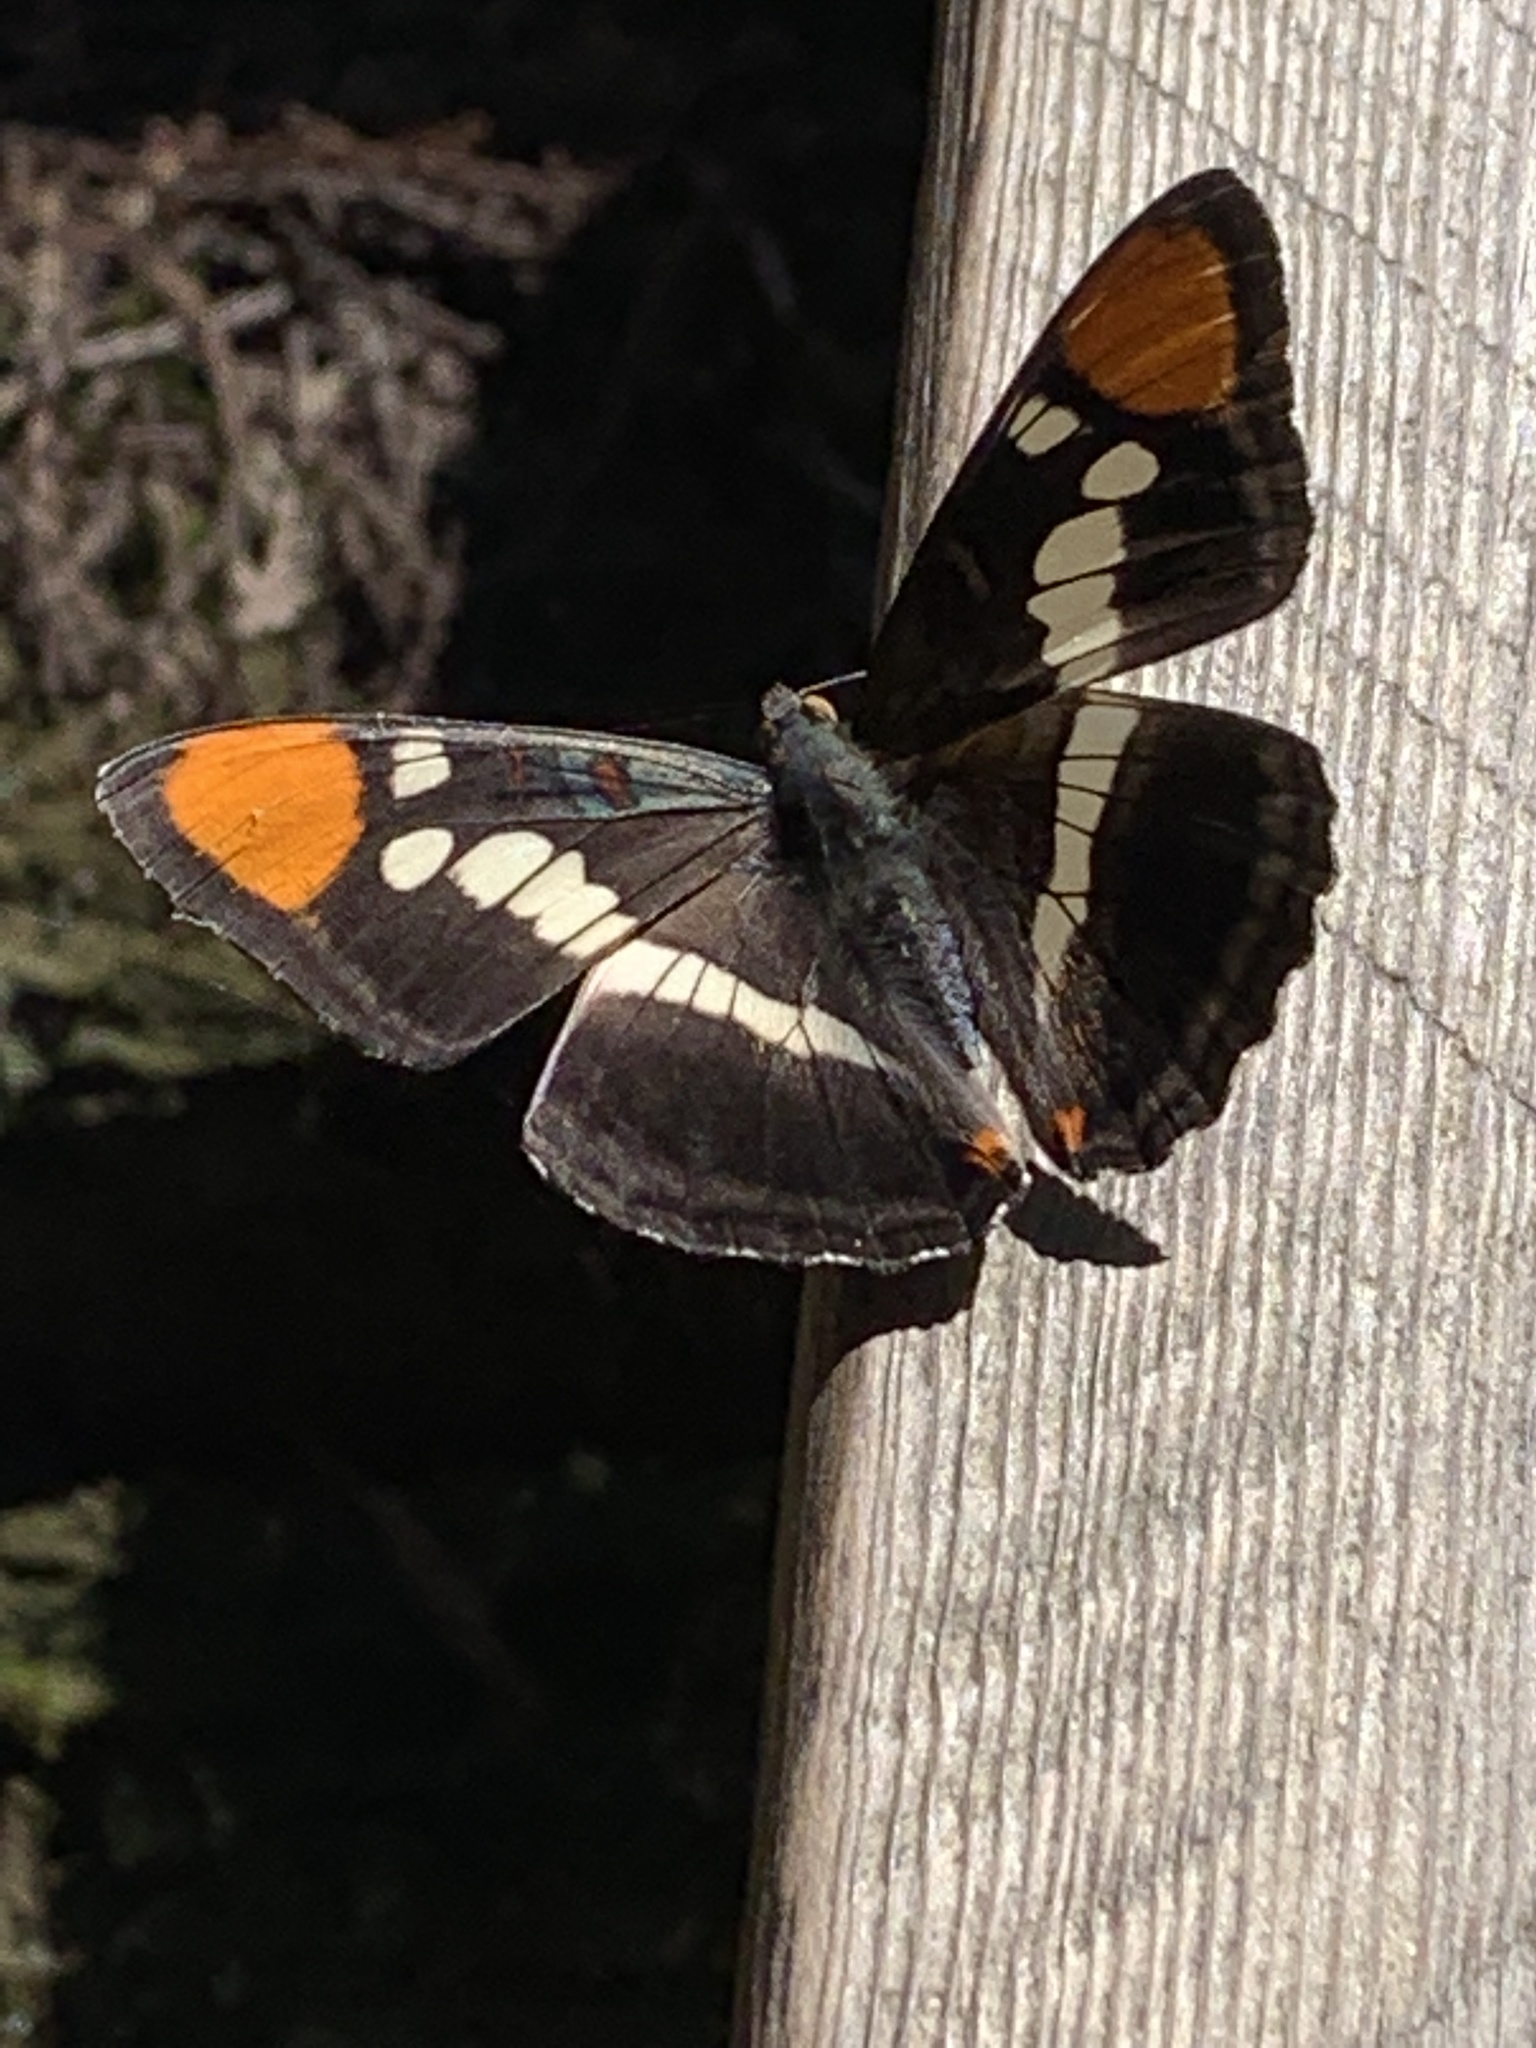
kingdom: Animalia
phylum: Arthropoda
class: Insecta
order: Lepidoptera
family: Nymphalidae
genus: Limenitis
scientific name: Limenitis bredowii
